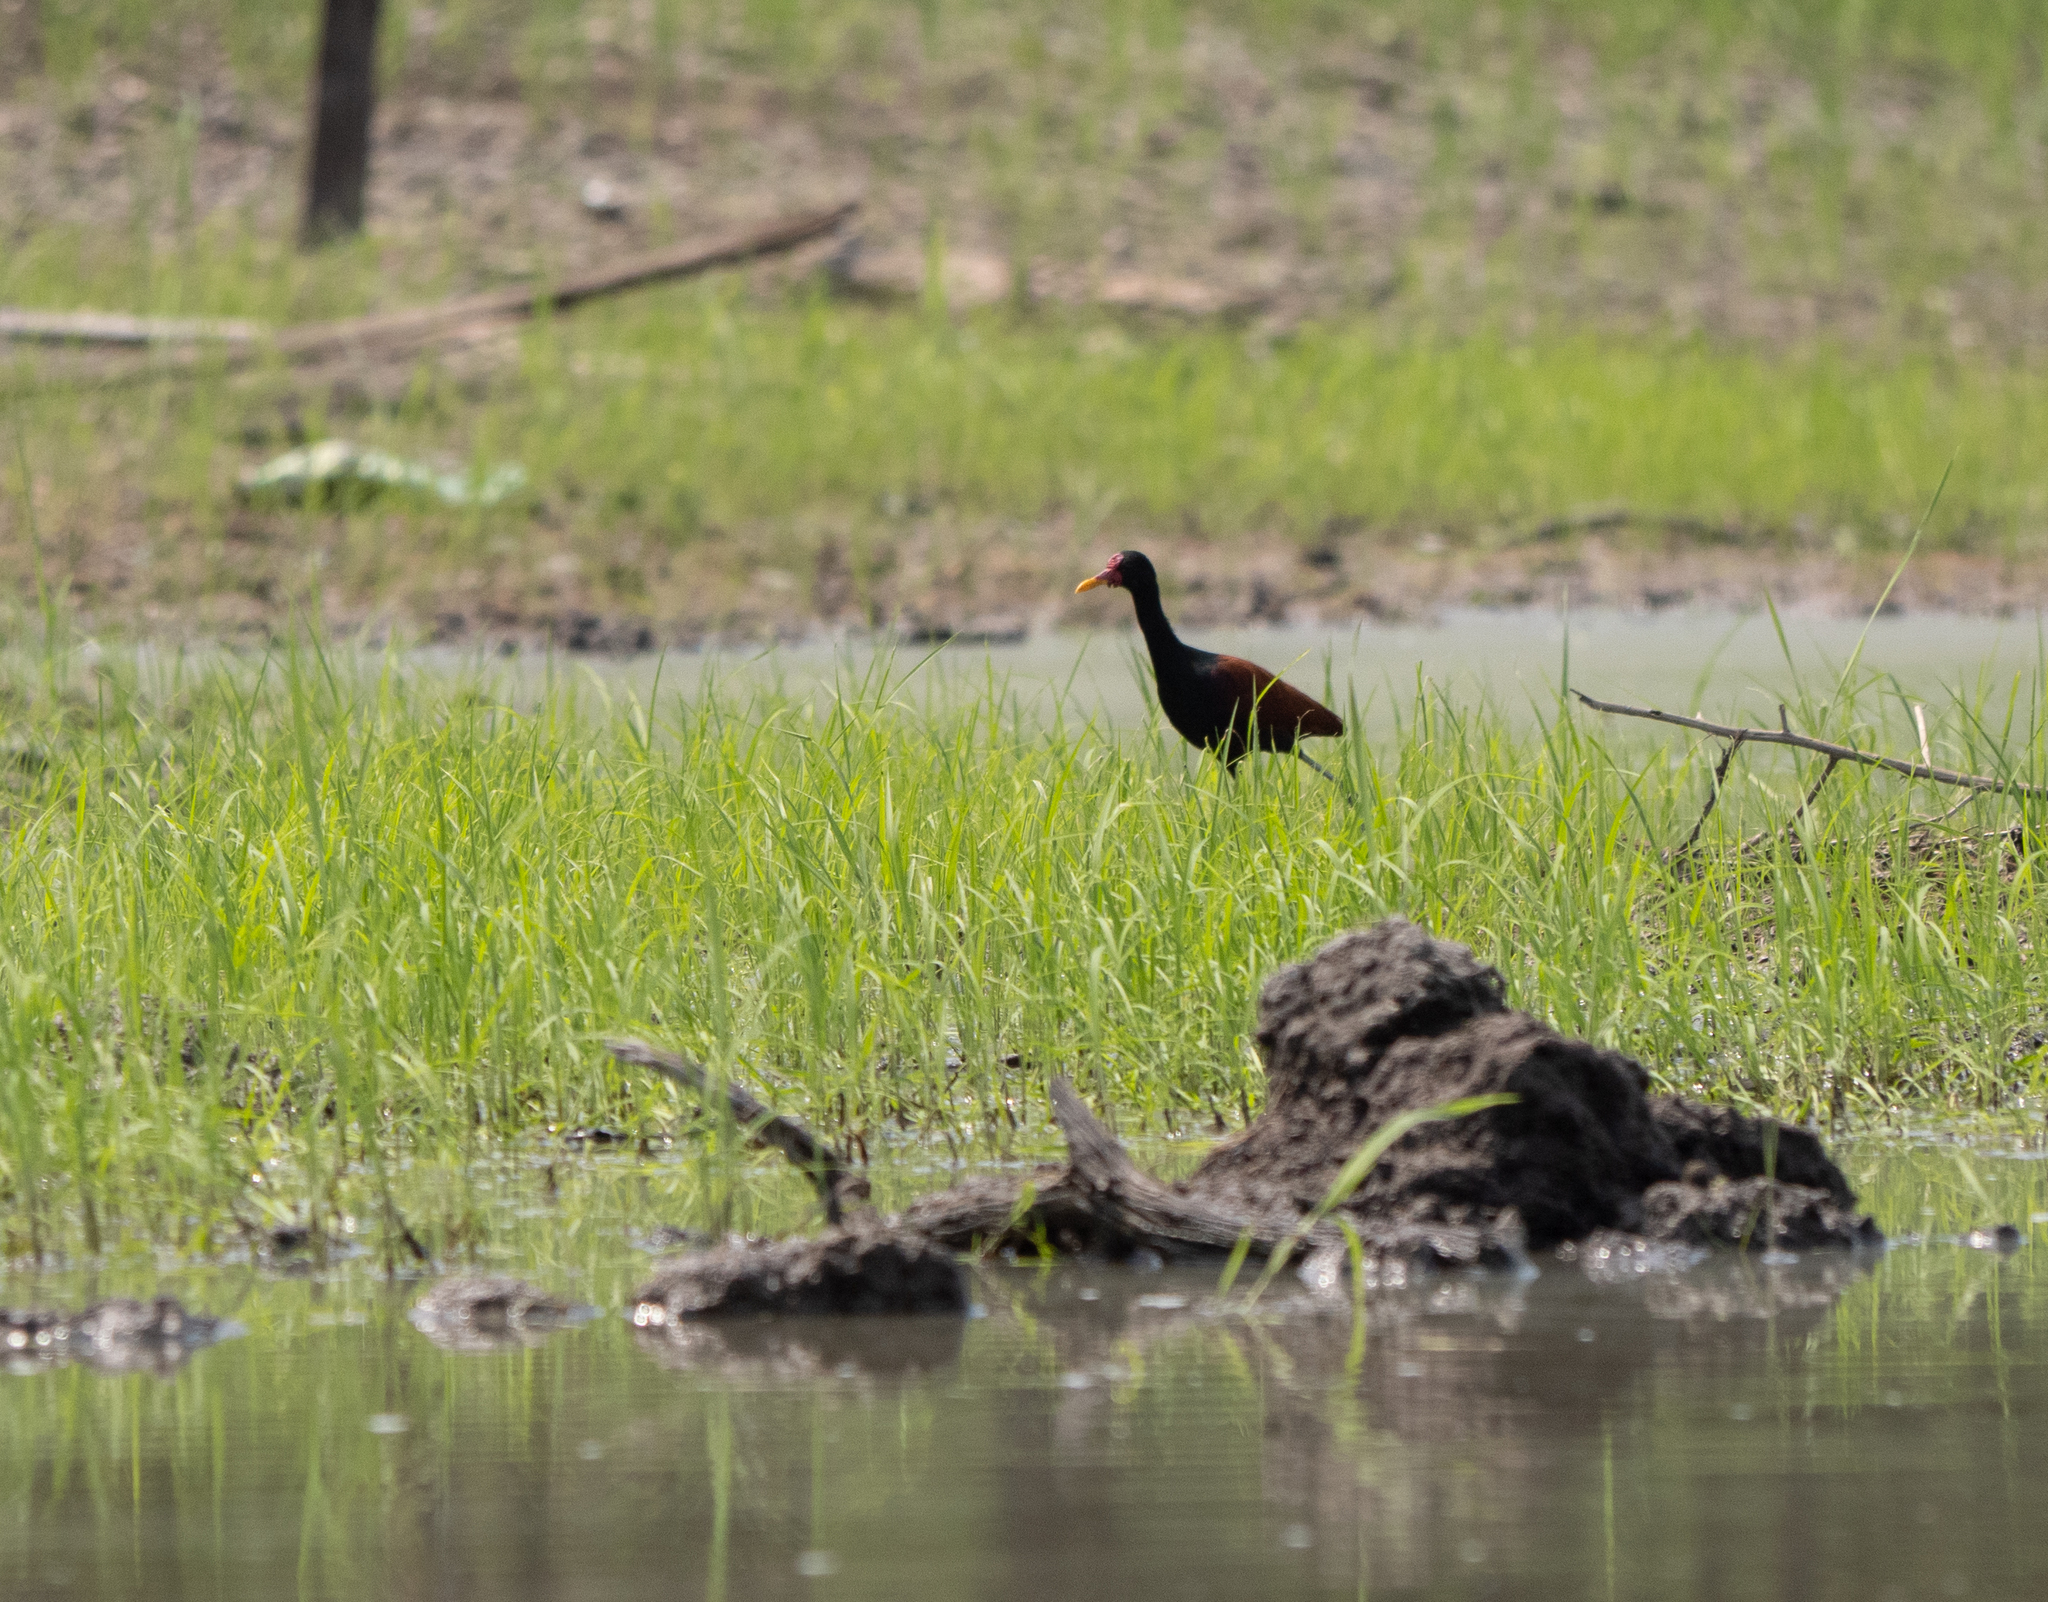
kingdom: Animalia
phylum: Chordata
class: Aves
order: Charadriiformes
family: Jacanidae
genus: Jacana
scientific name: Jacana jacana
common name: Wattled jacana
